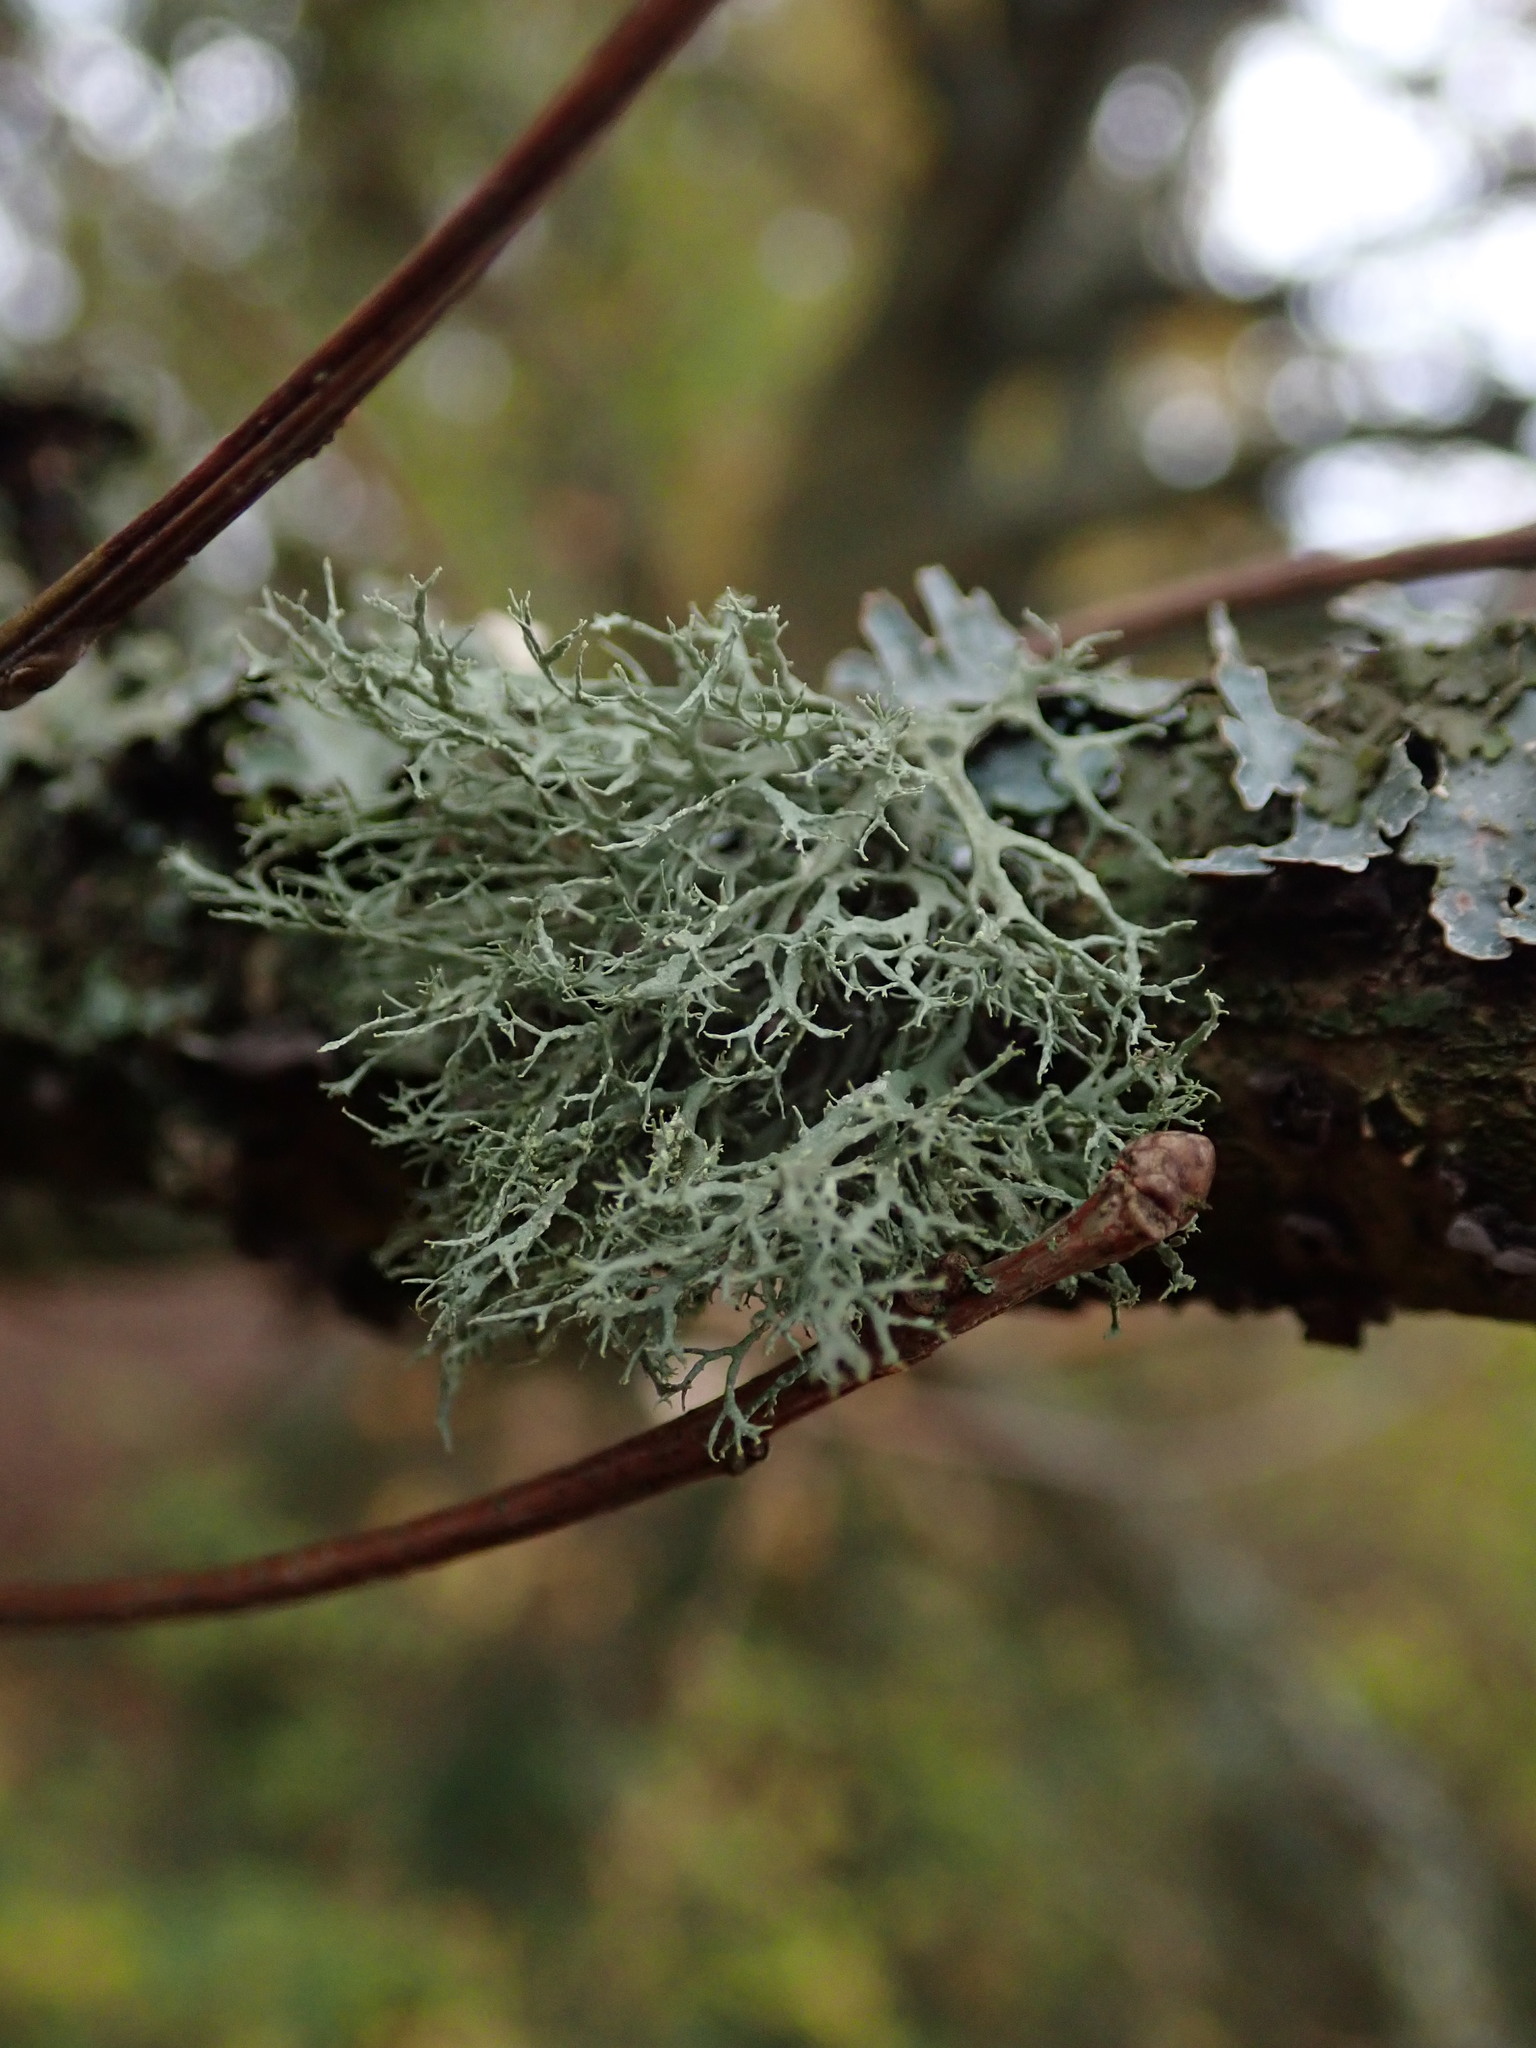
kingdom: Fungi
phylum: Ascomycota
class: Lecanoromycetes
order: Lecanorales
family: Ramalinaceae
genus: Ramalina
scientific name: Ramalina farinacea
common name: Farinose cartilage lichen
